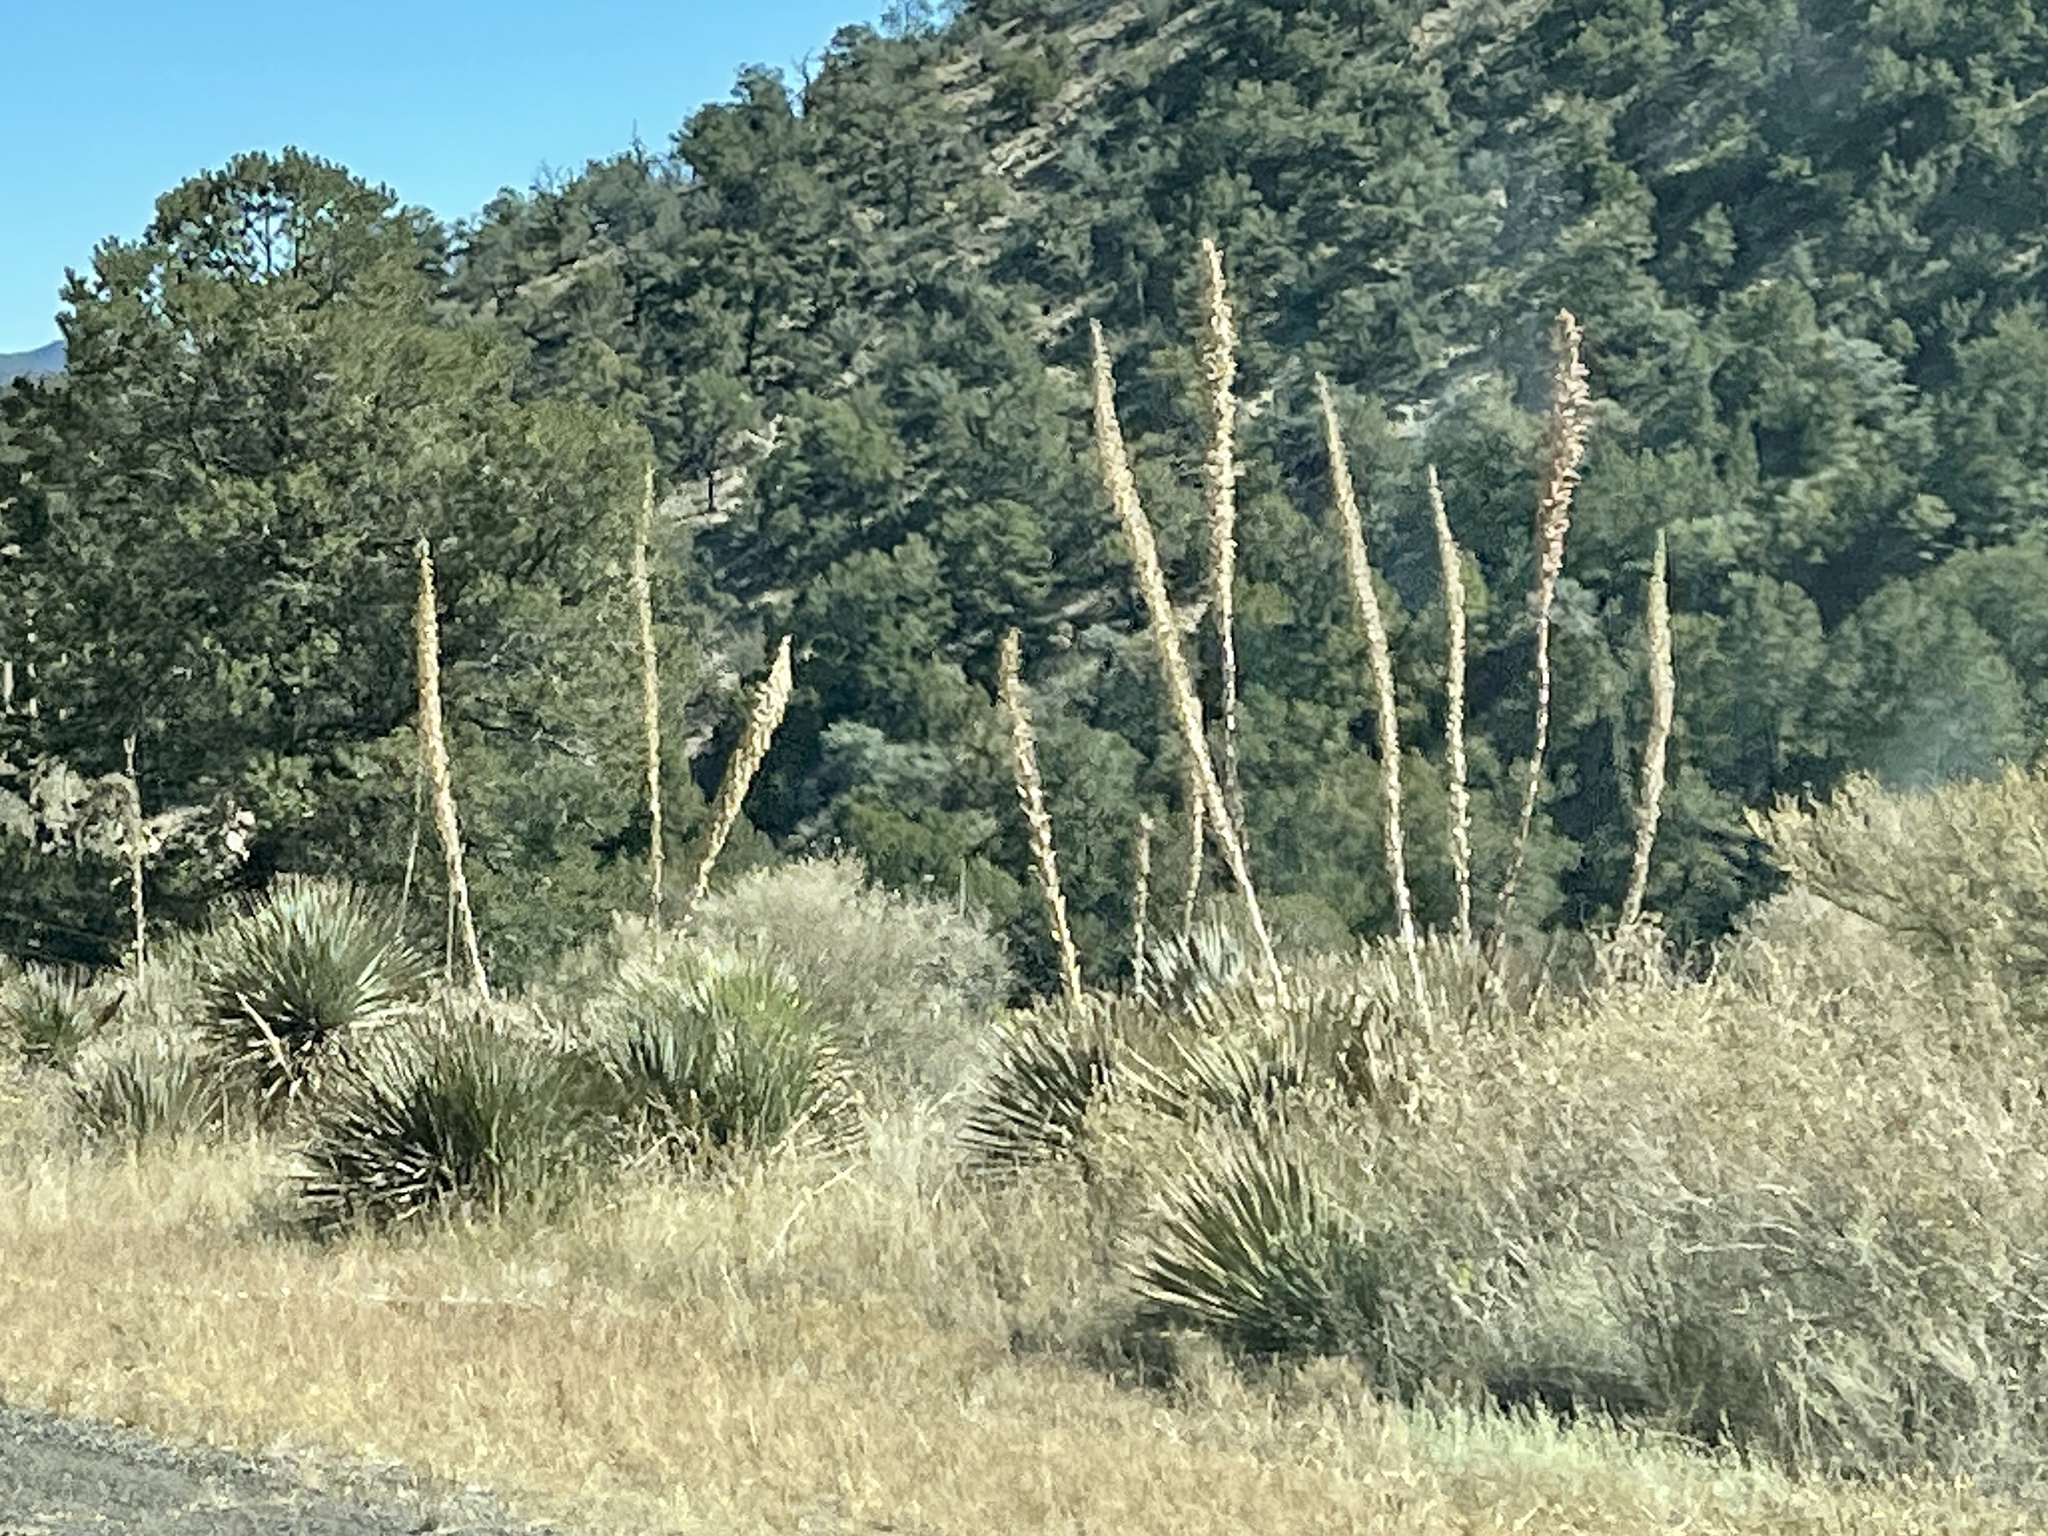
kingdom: Plantae
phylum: Tracheophyta
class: Liliopsida
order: Asparagales
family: Asparagaceae
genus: Dasylirion
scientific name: Dasylirion wheeleri
